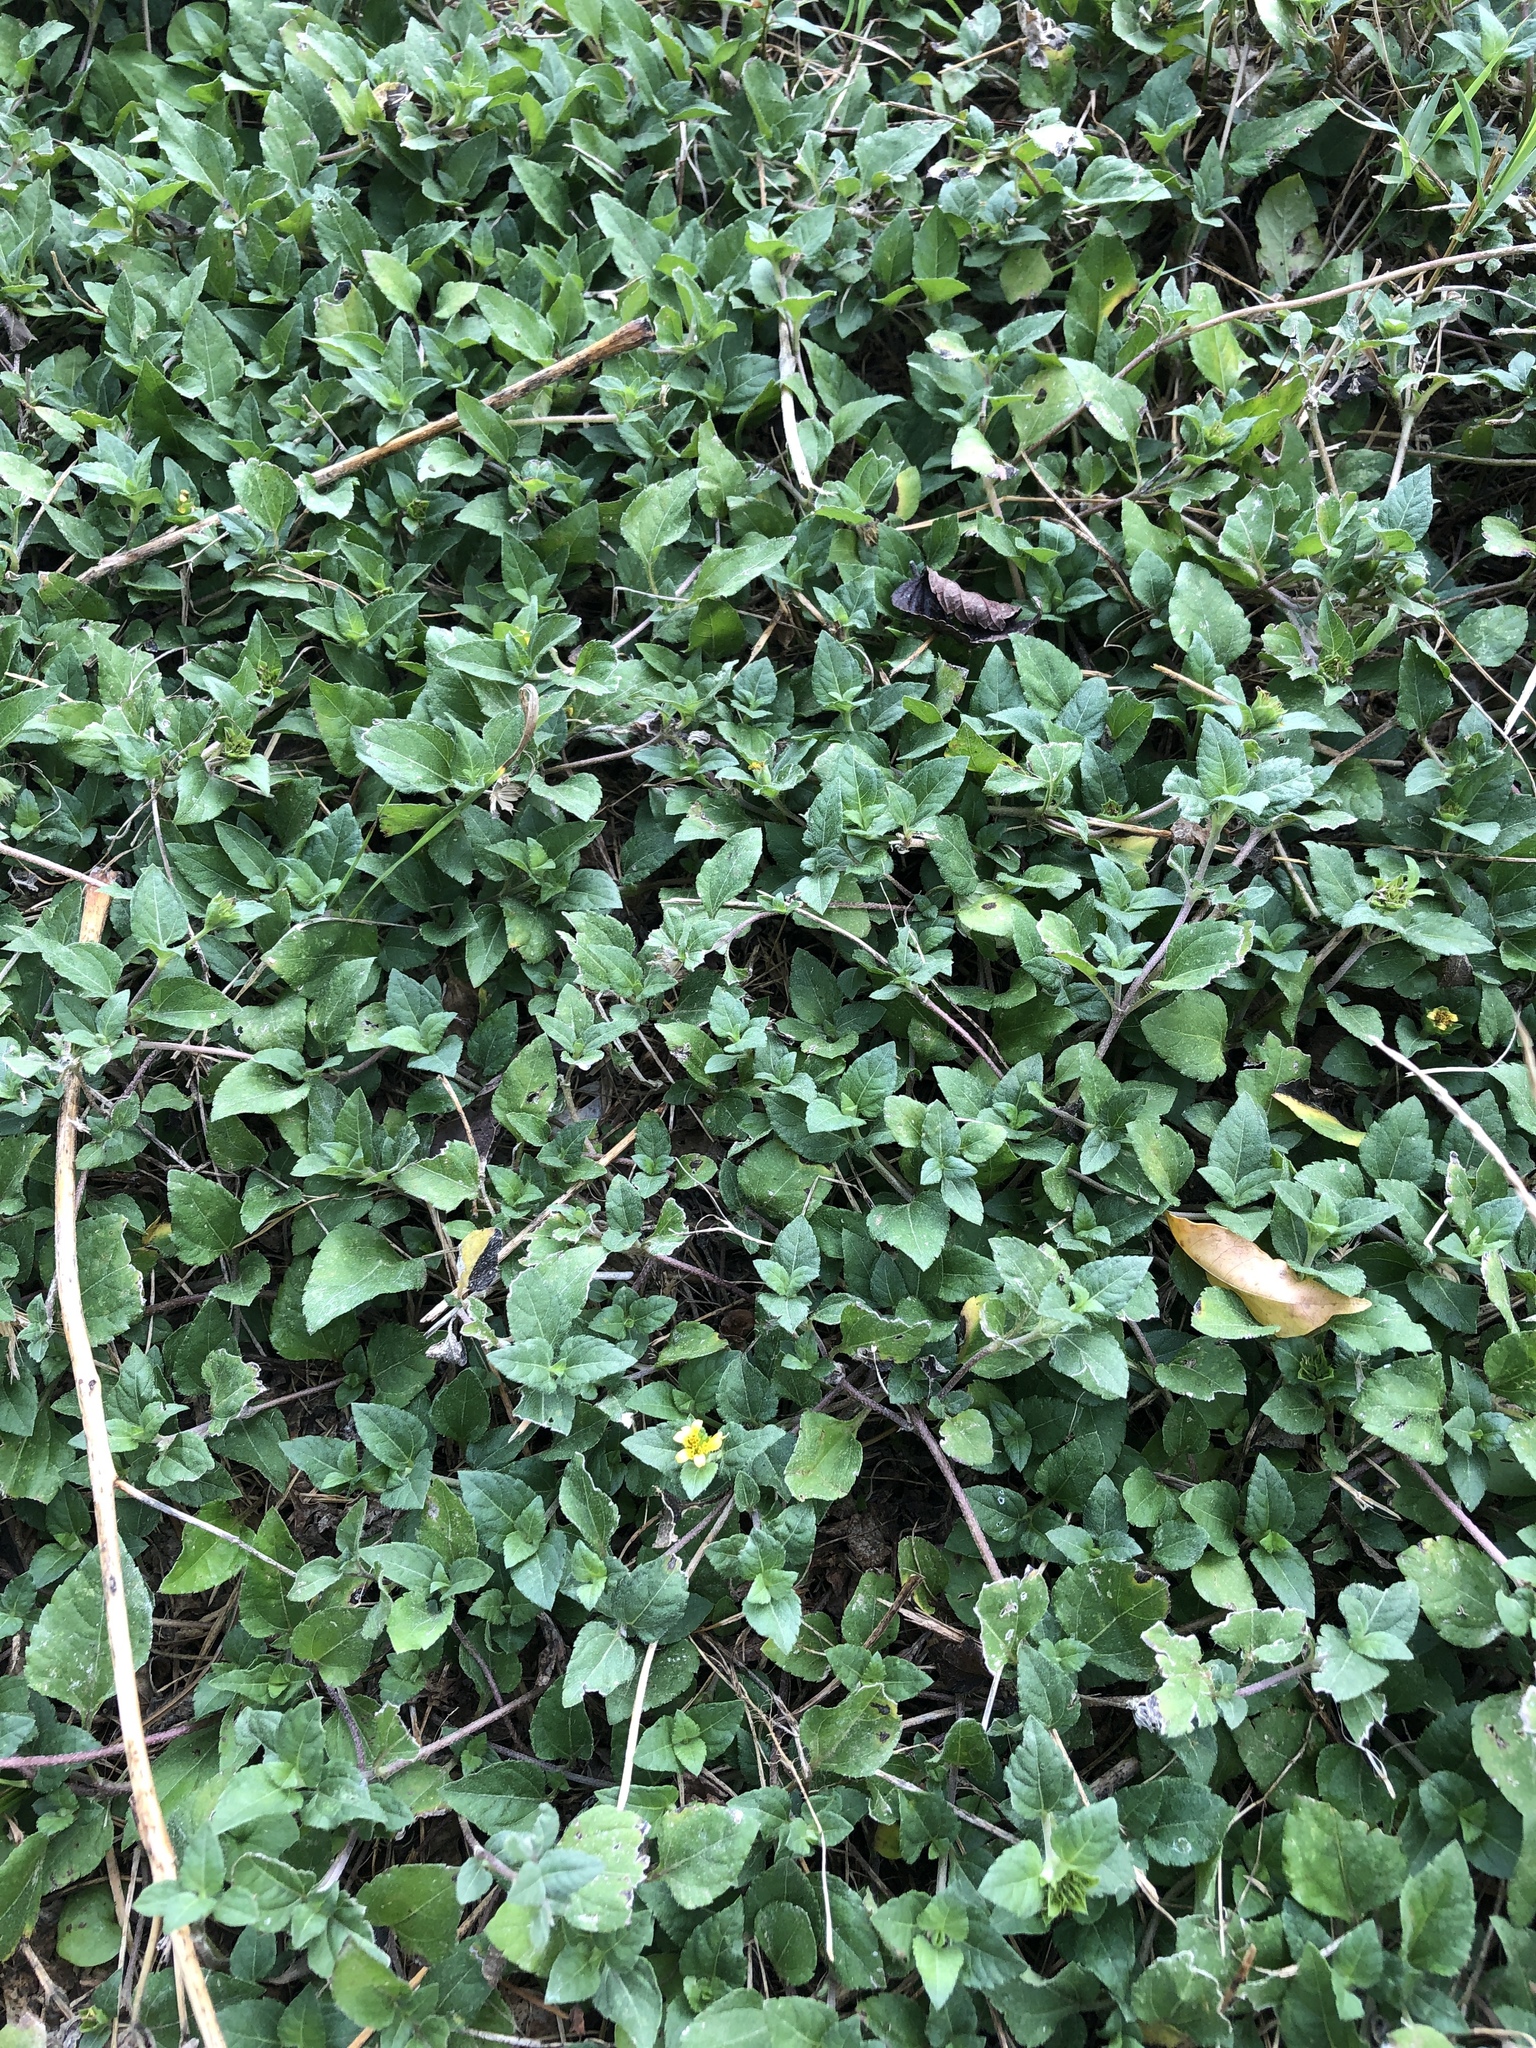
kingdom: Plantae
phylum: Tracheophyta
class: Magnoliopsida
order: Asterales
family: Asteraceae
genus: Calyptocarpus
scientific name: Calyptocarpus vialis
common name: Straggler daisy
